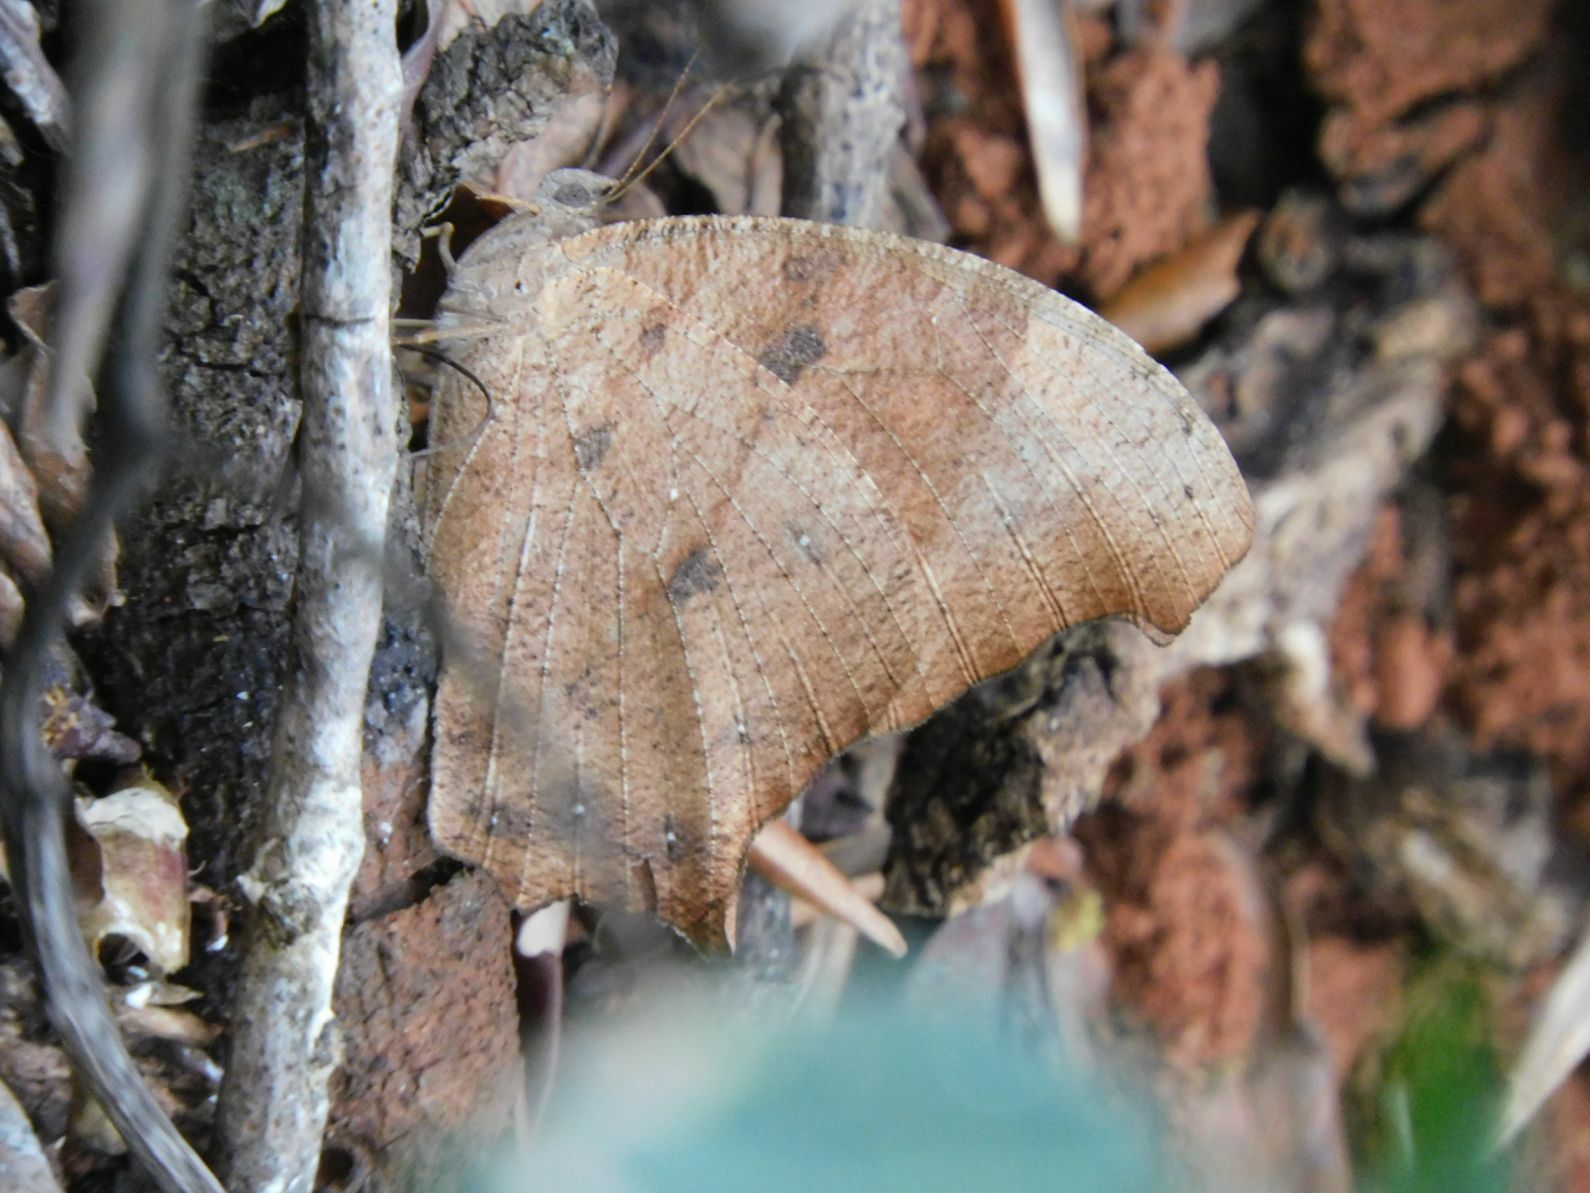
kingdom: Animalia
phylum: Arthropoda
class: Insecta
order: Lepidoptera
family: Nymphalidae
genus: Melanitis
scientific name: Melanitis leda
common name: Twilight brown
